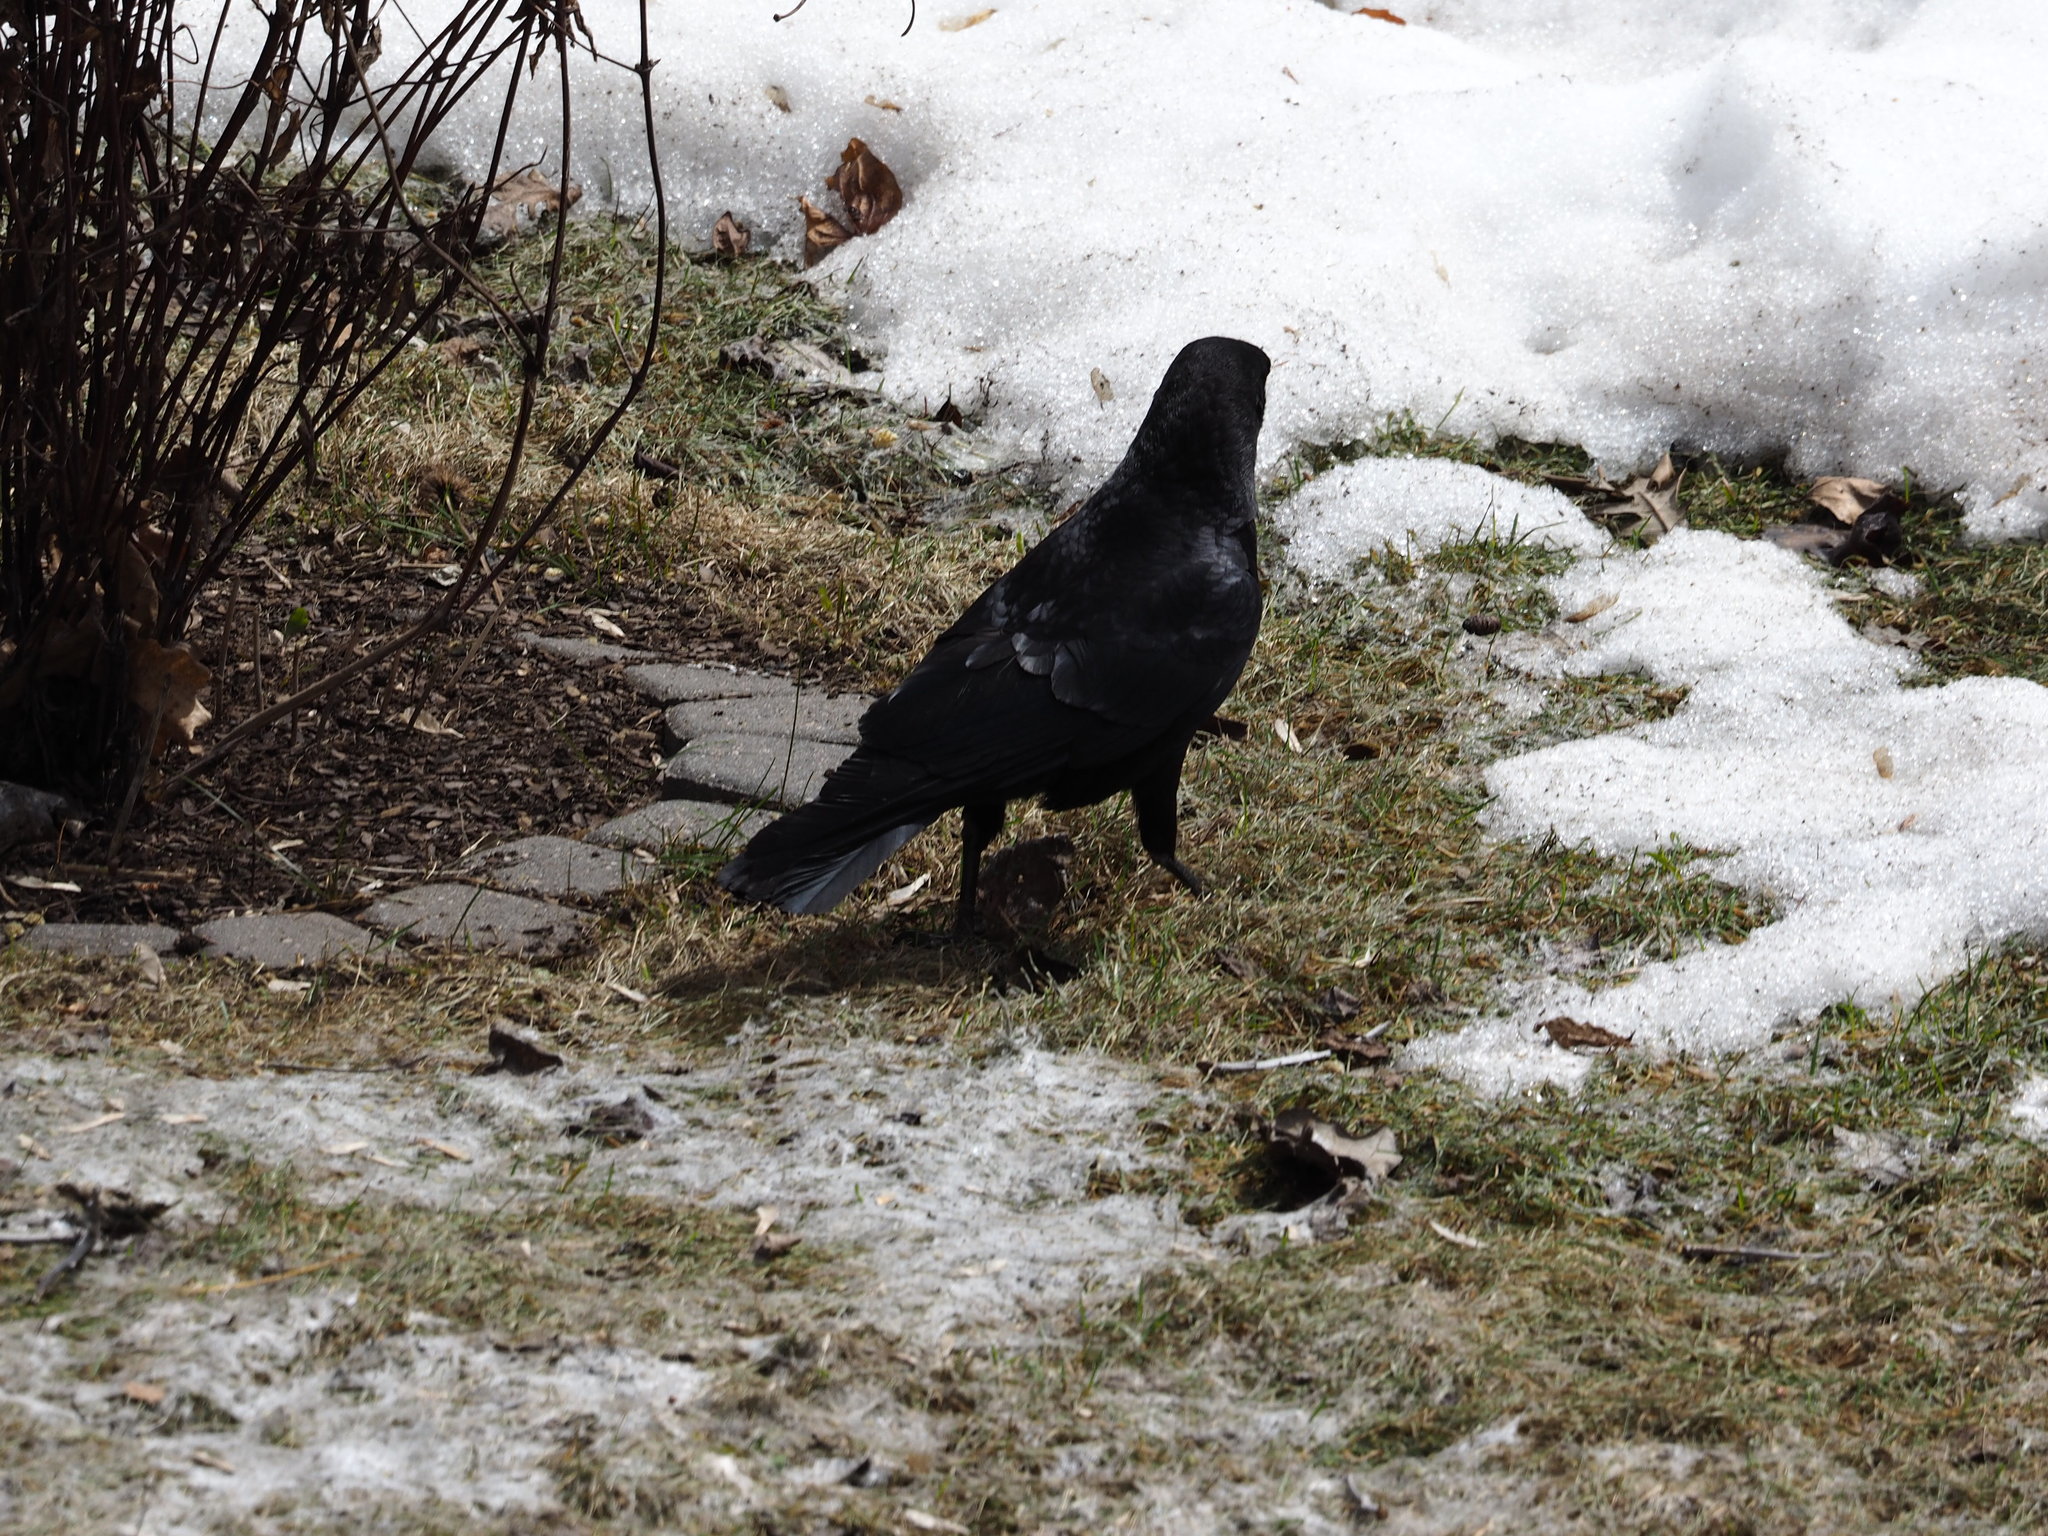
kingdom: Animalia
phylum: Chordata
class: Aves
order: Passeriformes
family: Corvidae
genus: Corvus
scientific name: Corvus brachyrhynchos
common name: American crow
